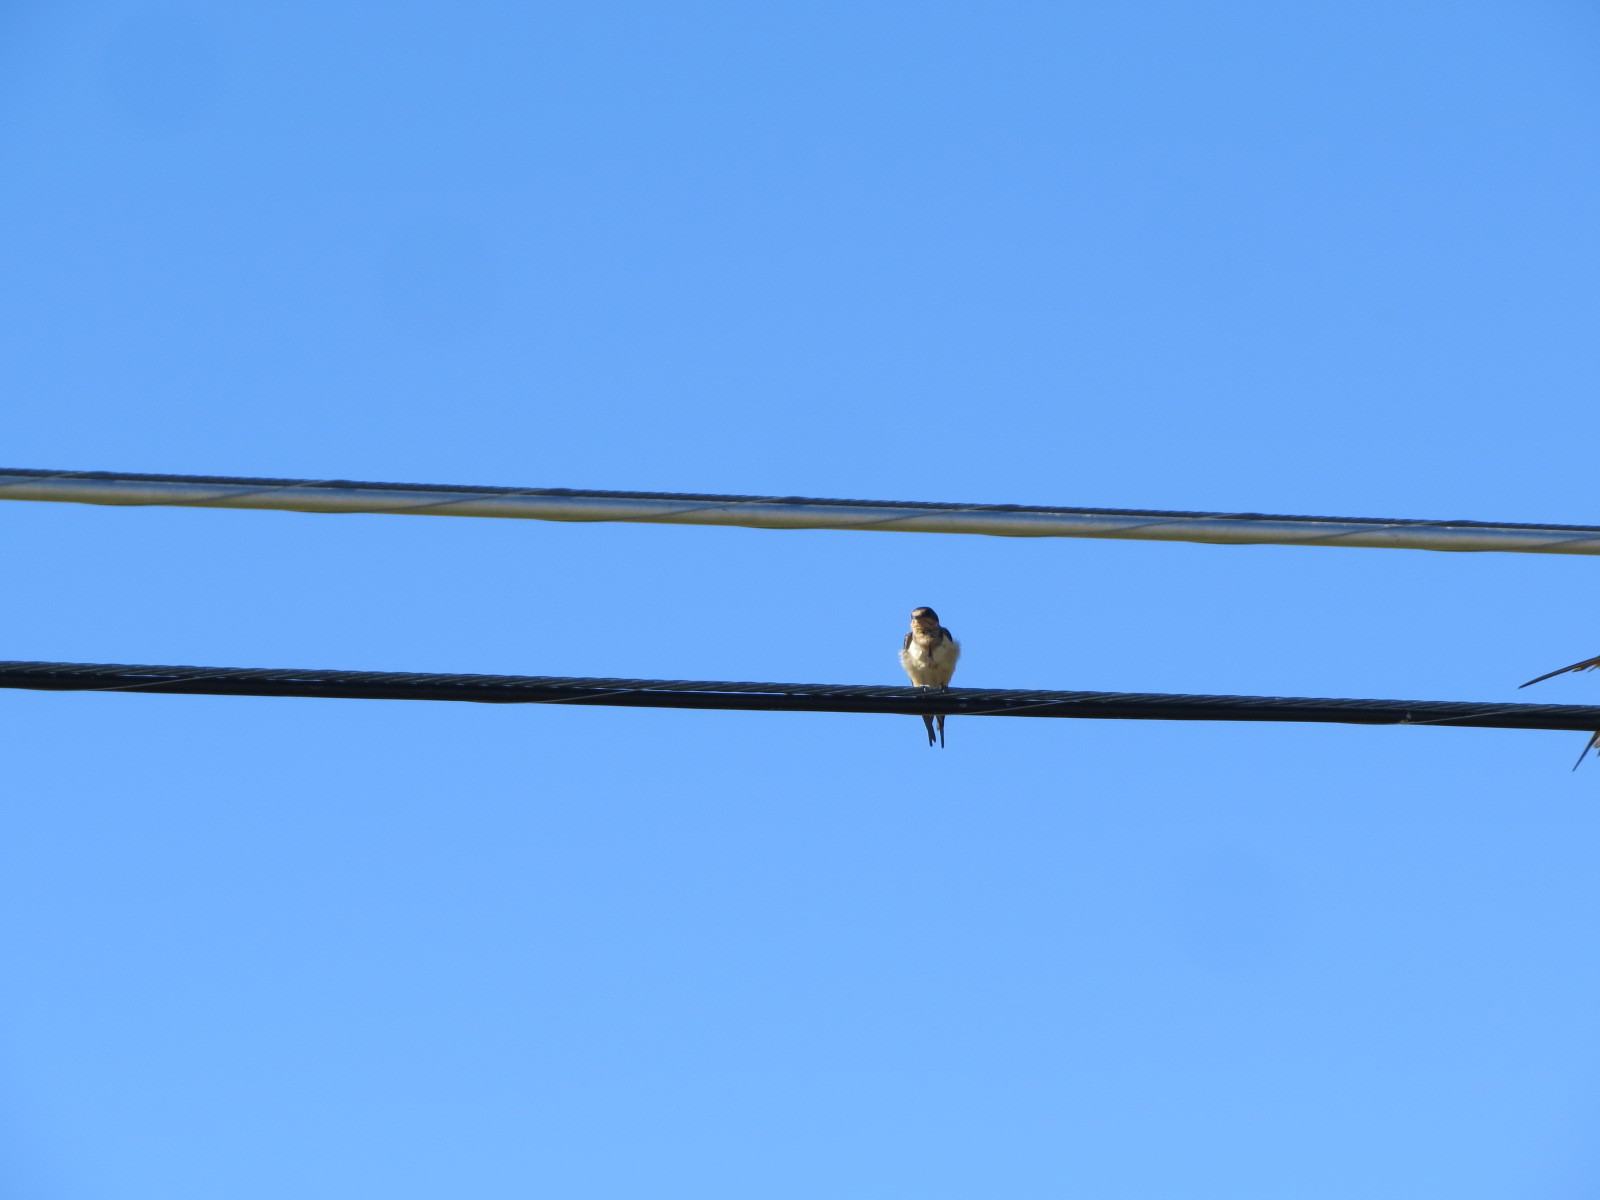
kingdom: Animalia
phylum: Chordata
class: Aves
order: Passeriformes
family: Hirundinidae
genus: Hirundo
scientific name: Hirundo rustica
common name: Barn swallow
